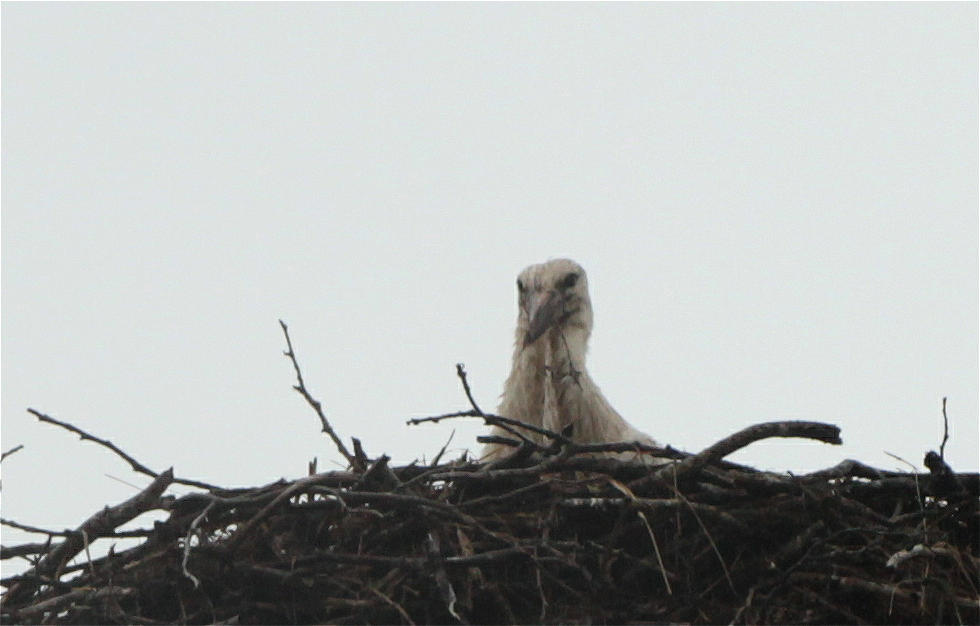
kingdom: Animalia
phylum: Chordata
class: Aves
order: Ciconiiformes
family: Ciconiidae
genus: Ciconia
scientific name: Ciconia ciconia
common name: White stork
